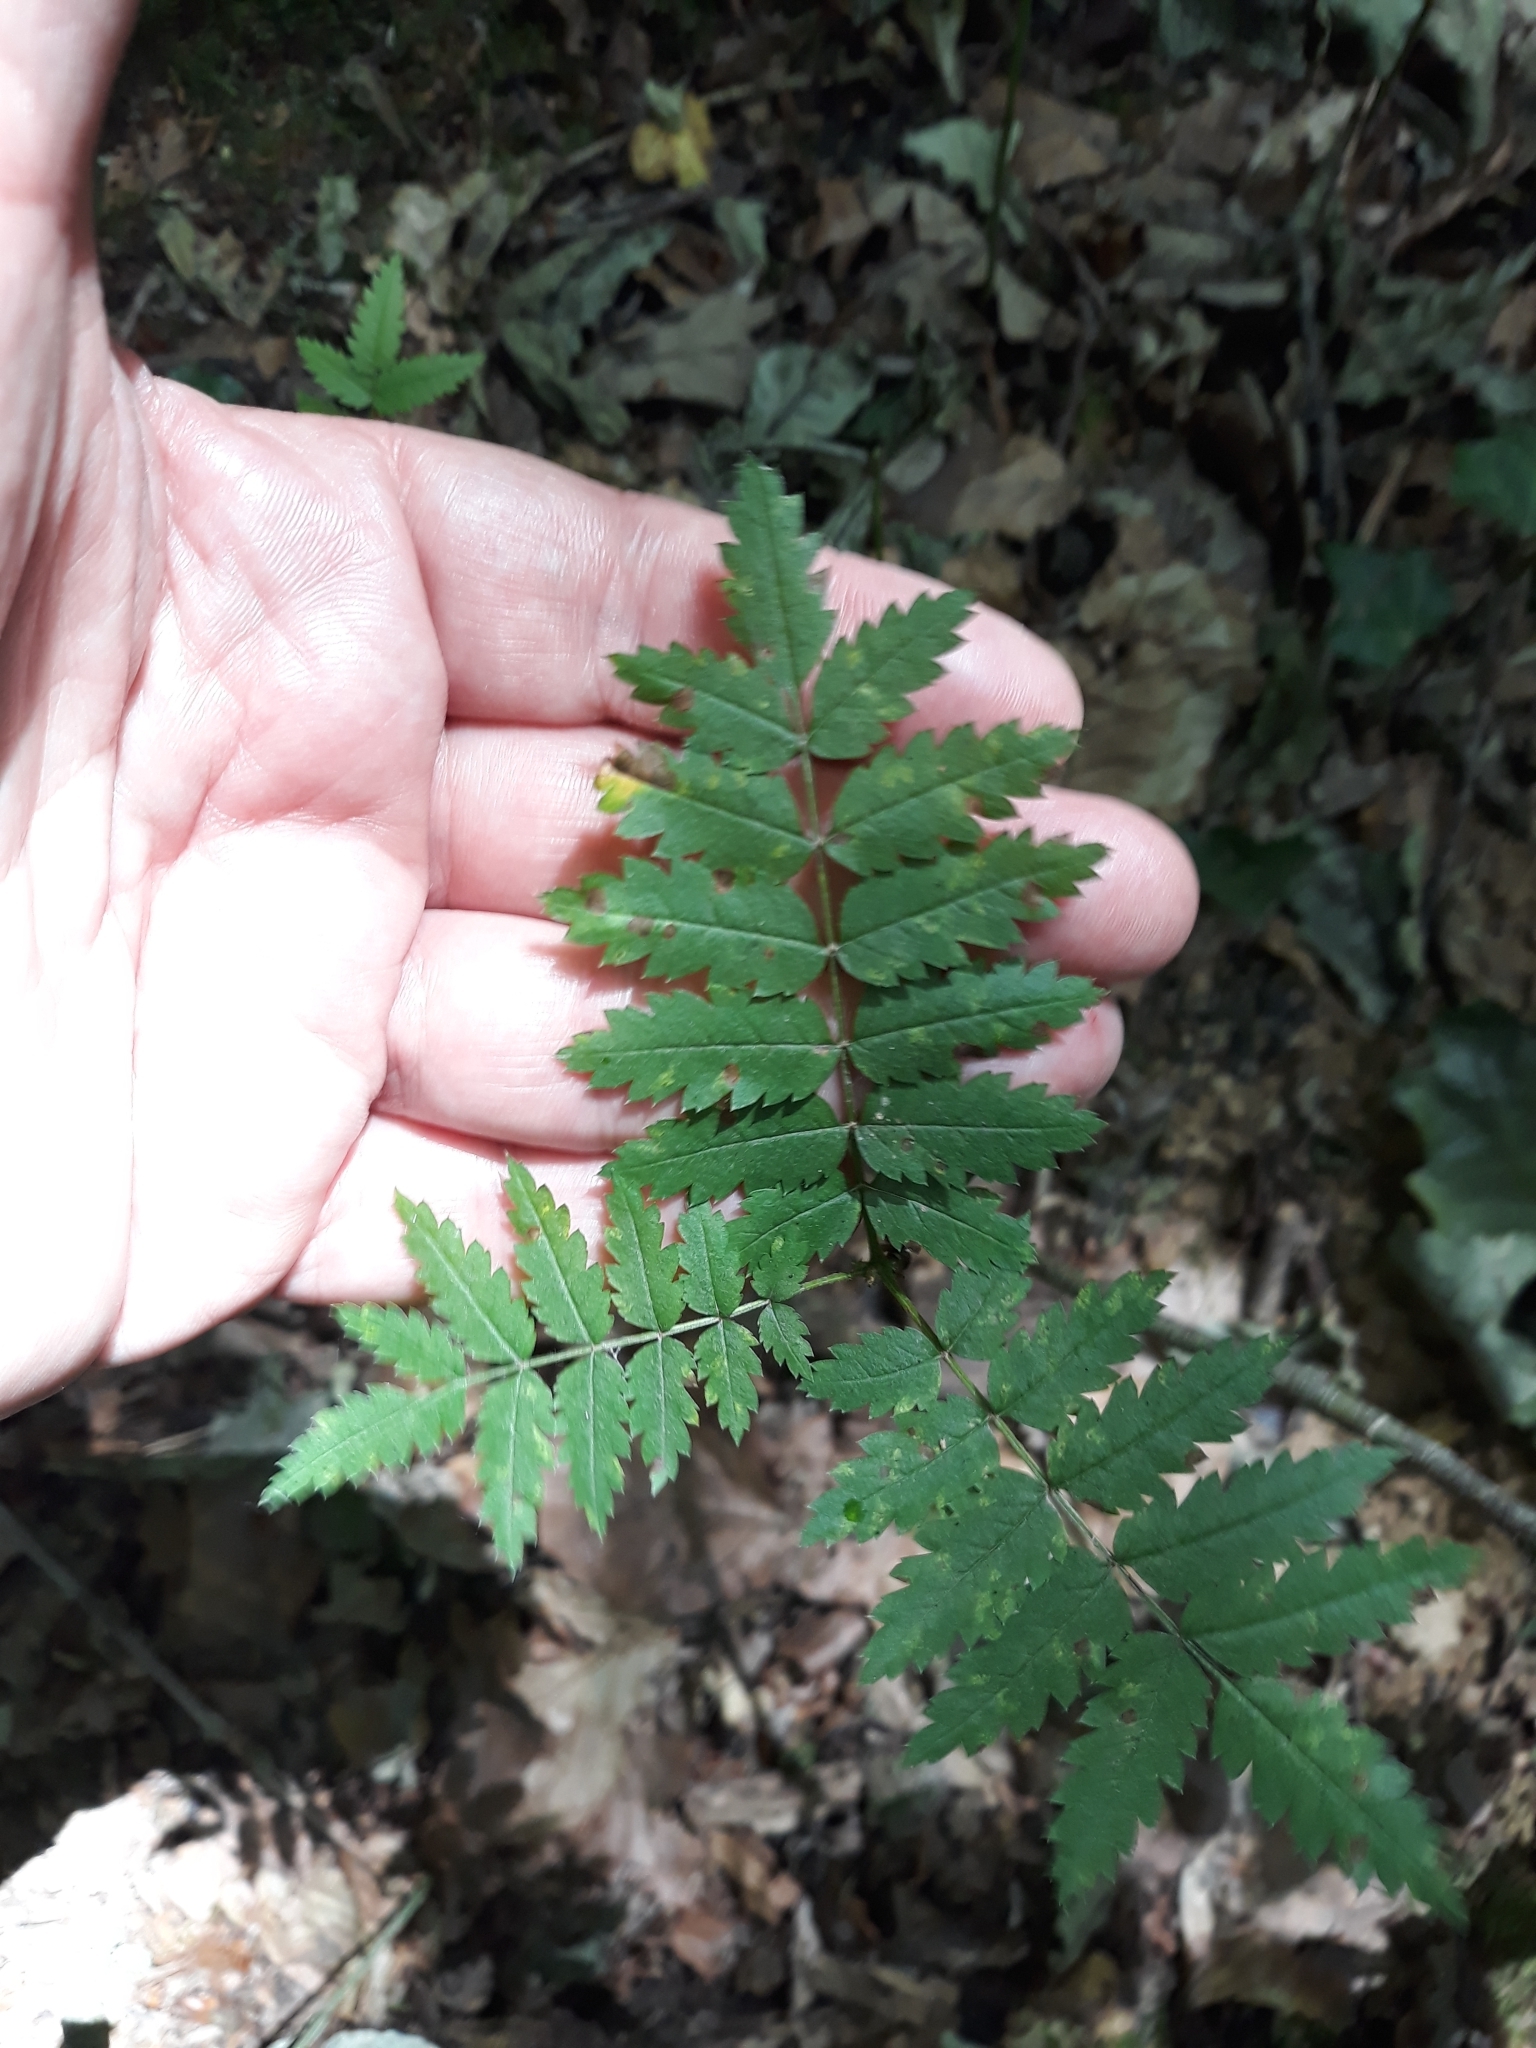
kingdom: Plantae
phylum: Tracheophyta
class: Magnoliopsida
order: Rosales
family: Rosaceae
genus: Sorbus
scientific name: Sorbus aucuparia
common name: Rowan
